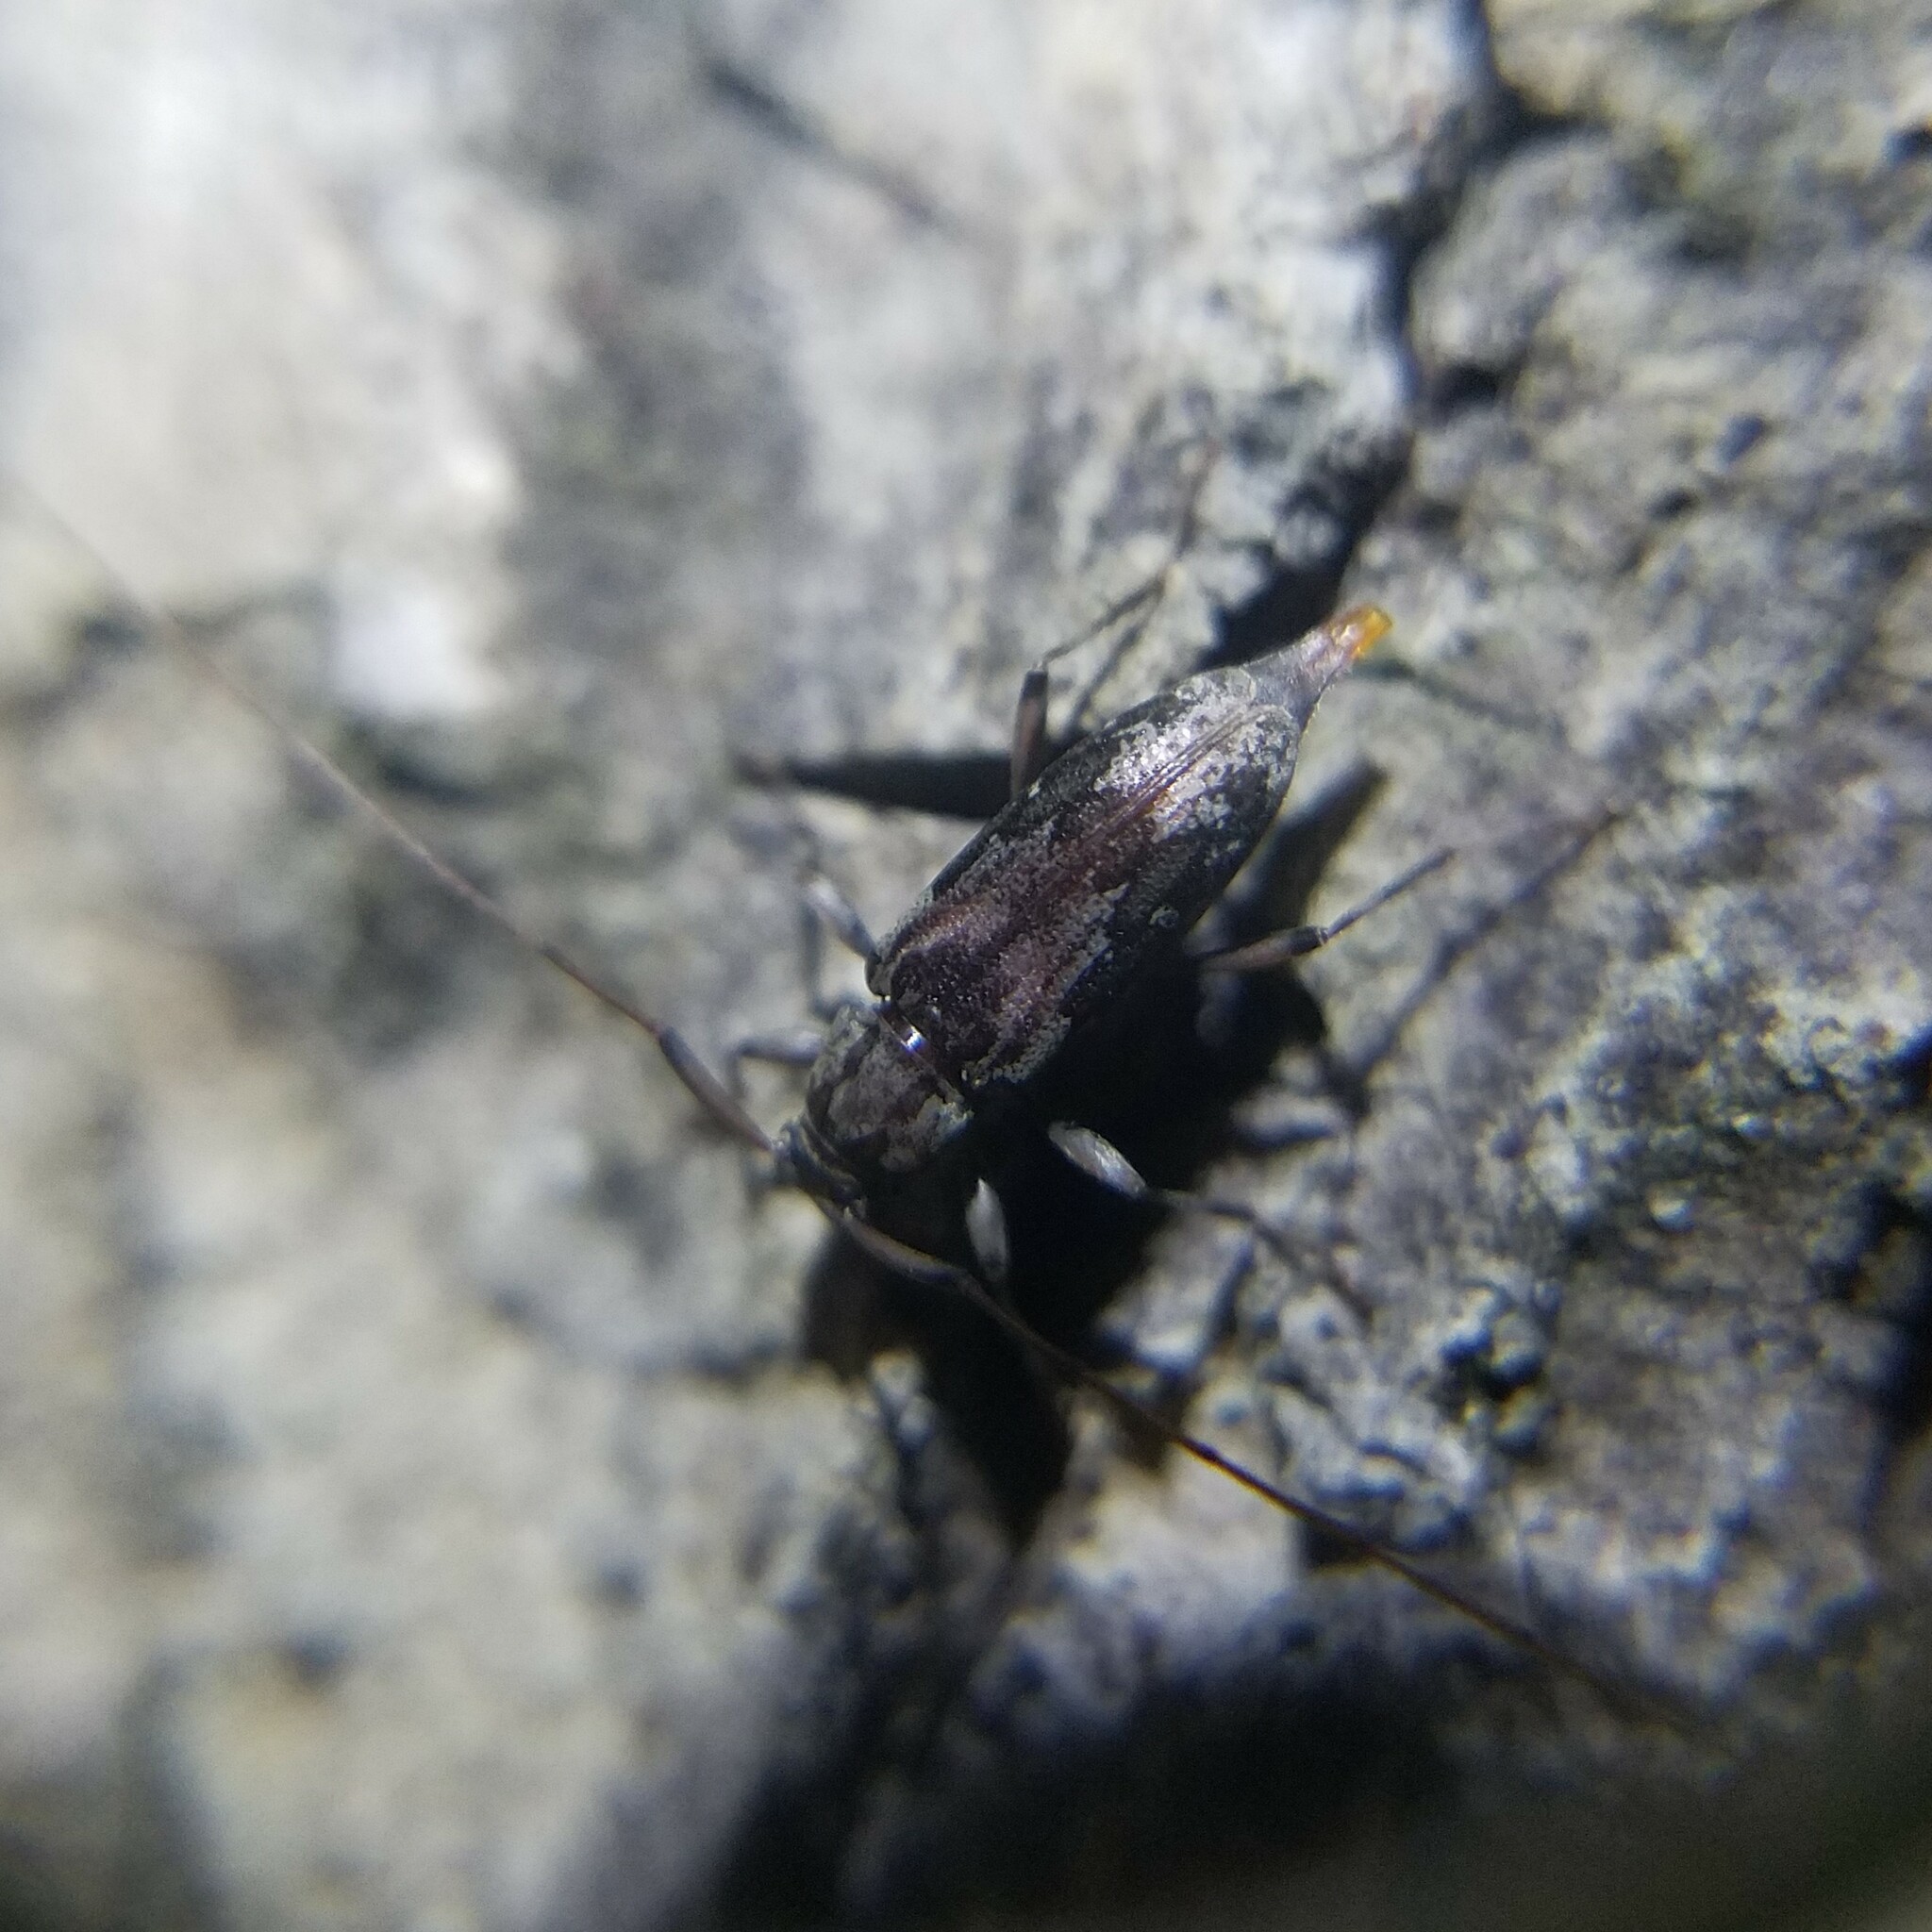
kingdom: Animalia
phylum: Arthropoda
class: Insecta
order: Coleoptera
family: Cerambycidae
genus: Lepturges
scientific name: Lepturges confluens
